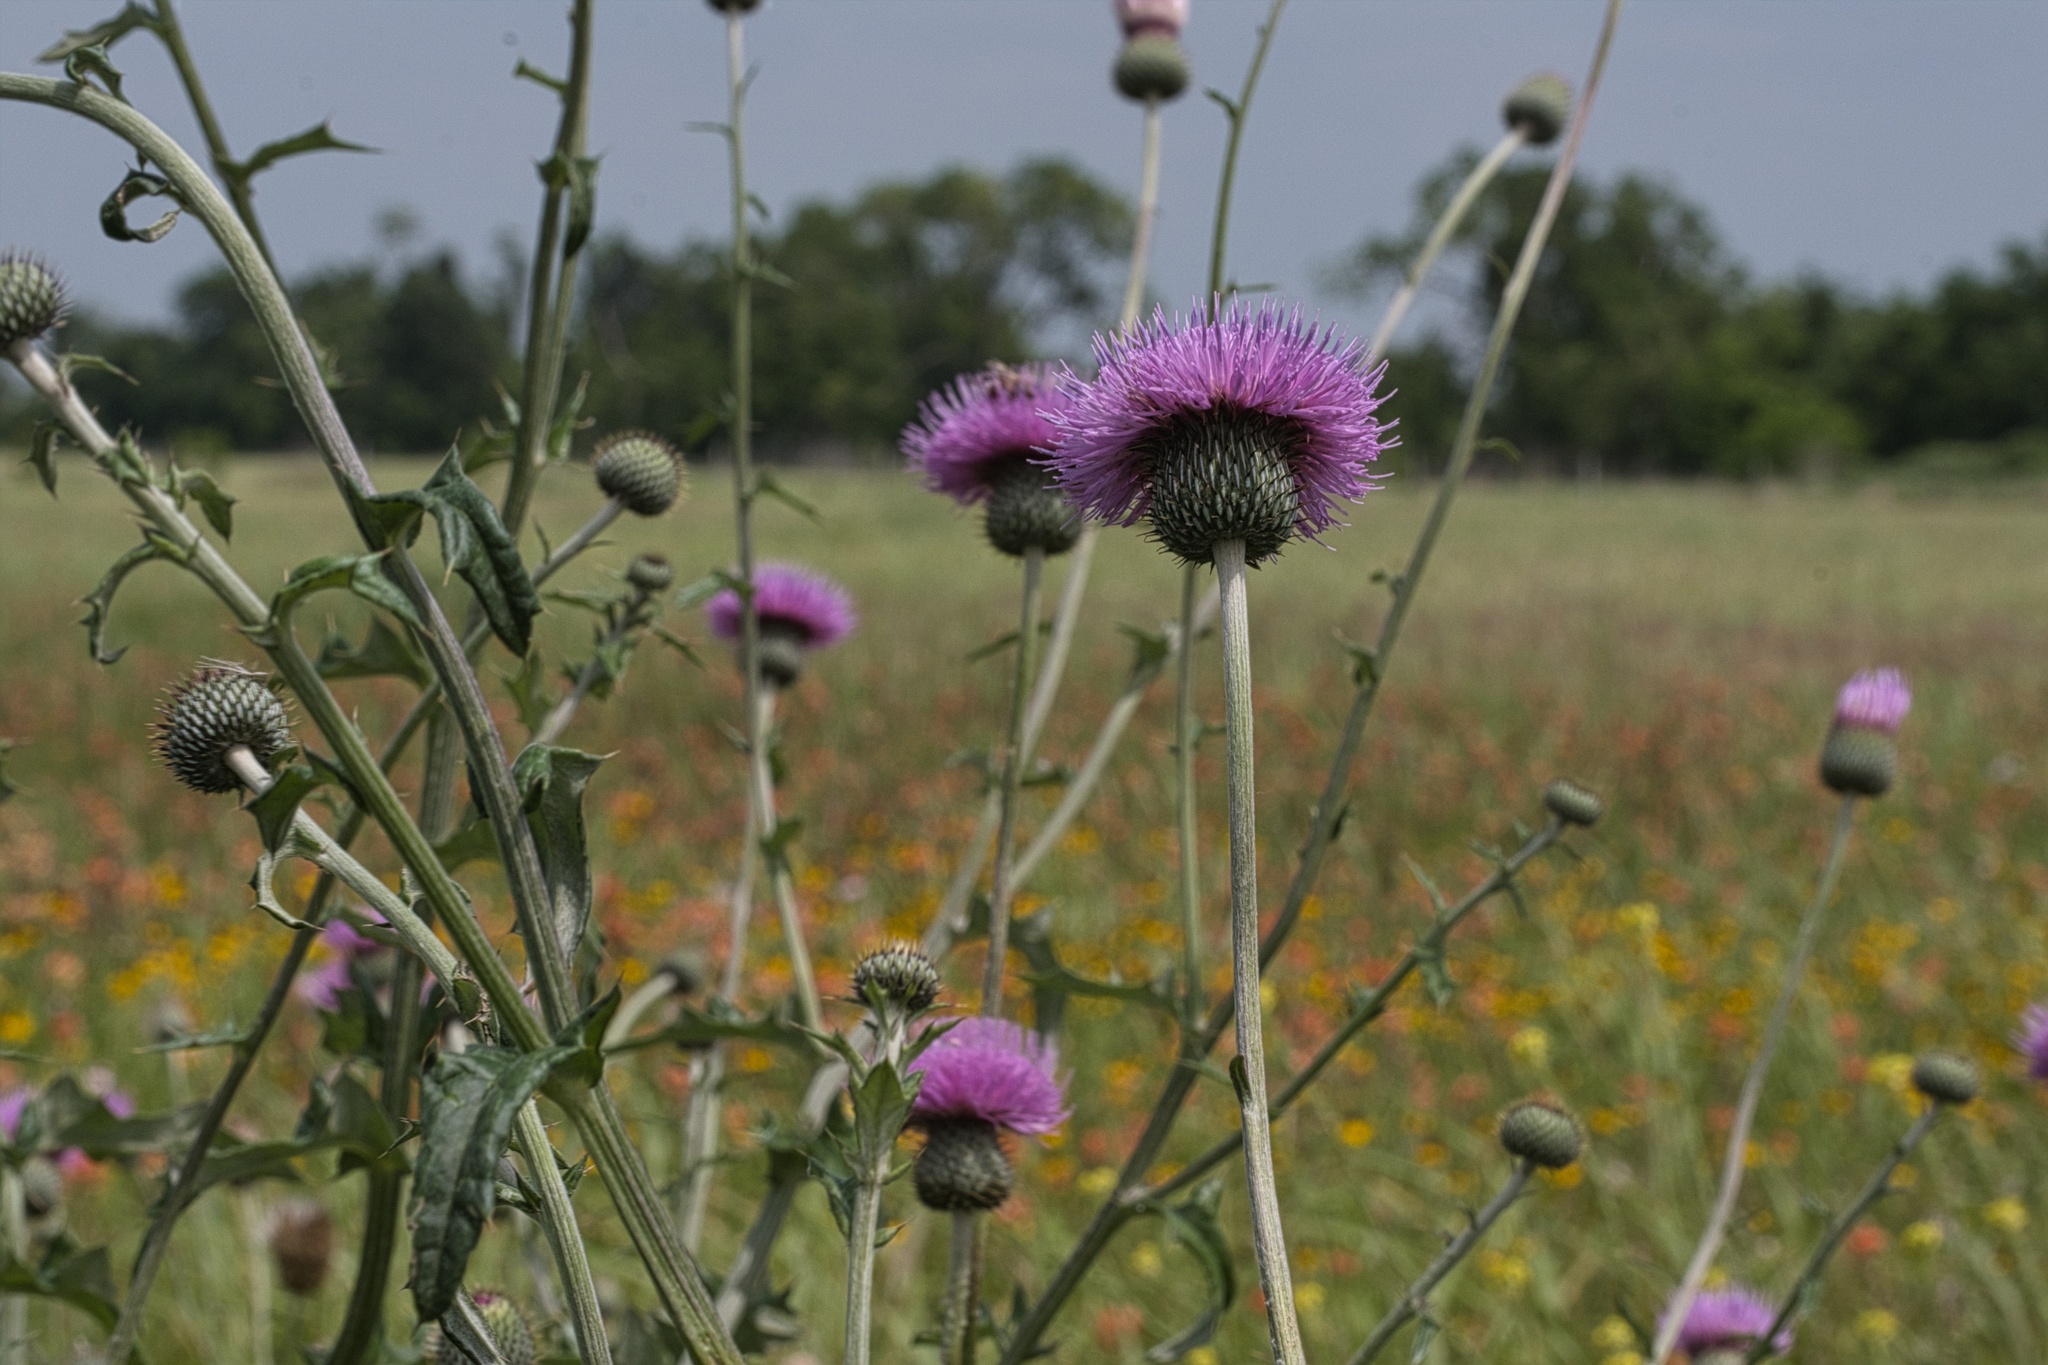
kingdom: Plantae
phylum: Tracheophyta
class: Magnoliopsida
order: Asterales
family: Asteraceae
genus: Cirsium
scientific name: Cirsium texanum
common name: Texas purple thistle
